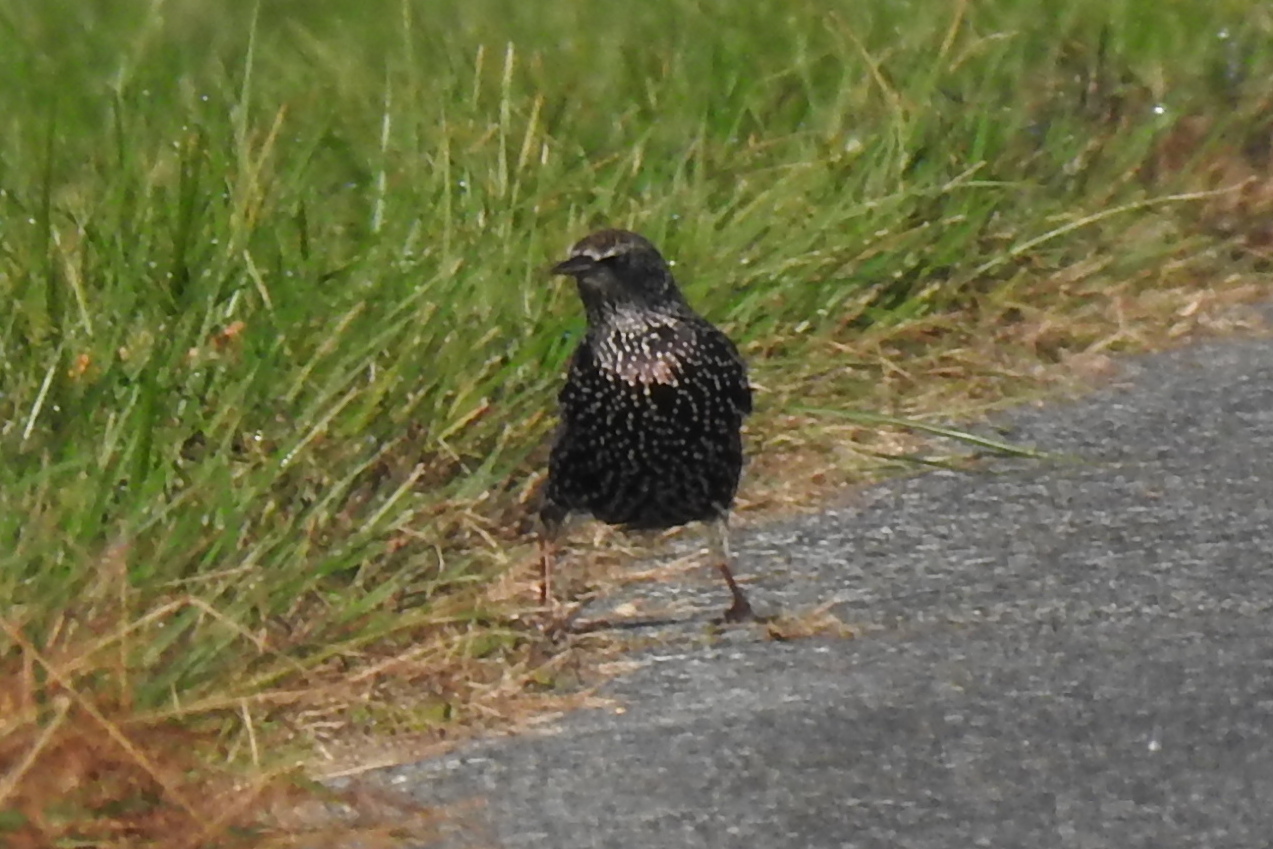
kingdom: Animalia
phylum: Chordata
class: Aves
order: Passeriformes
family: Sturnidae
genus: Sturnus
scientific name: Sturnus vulgaris
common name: Common starling
